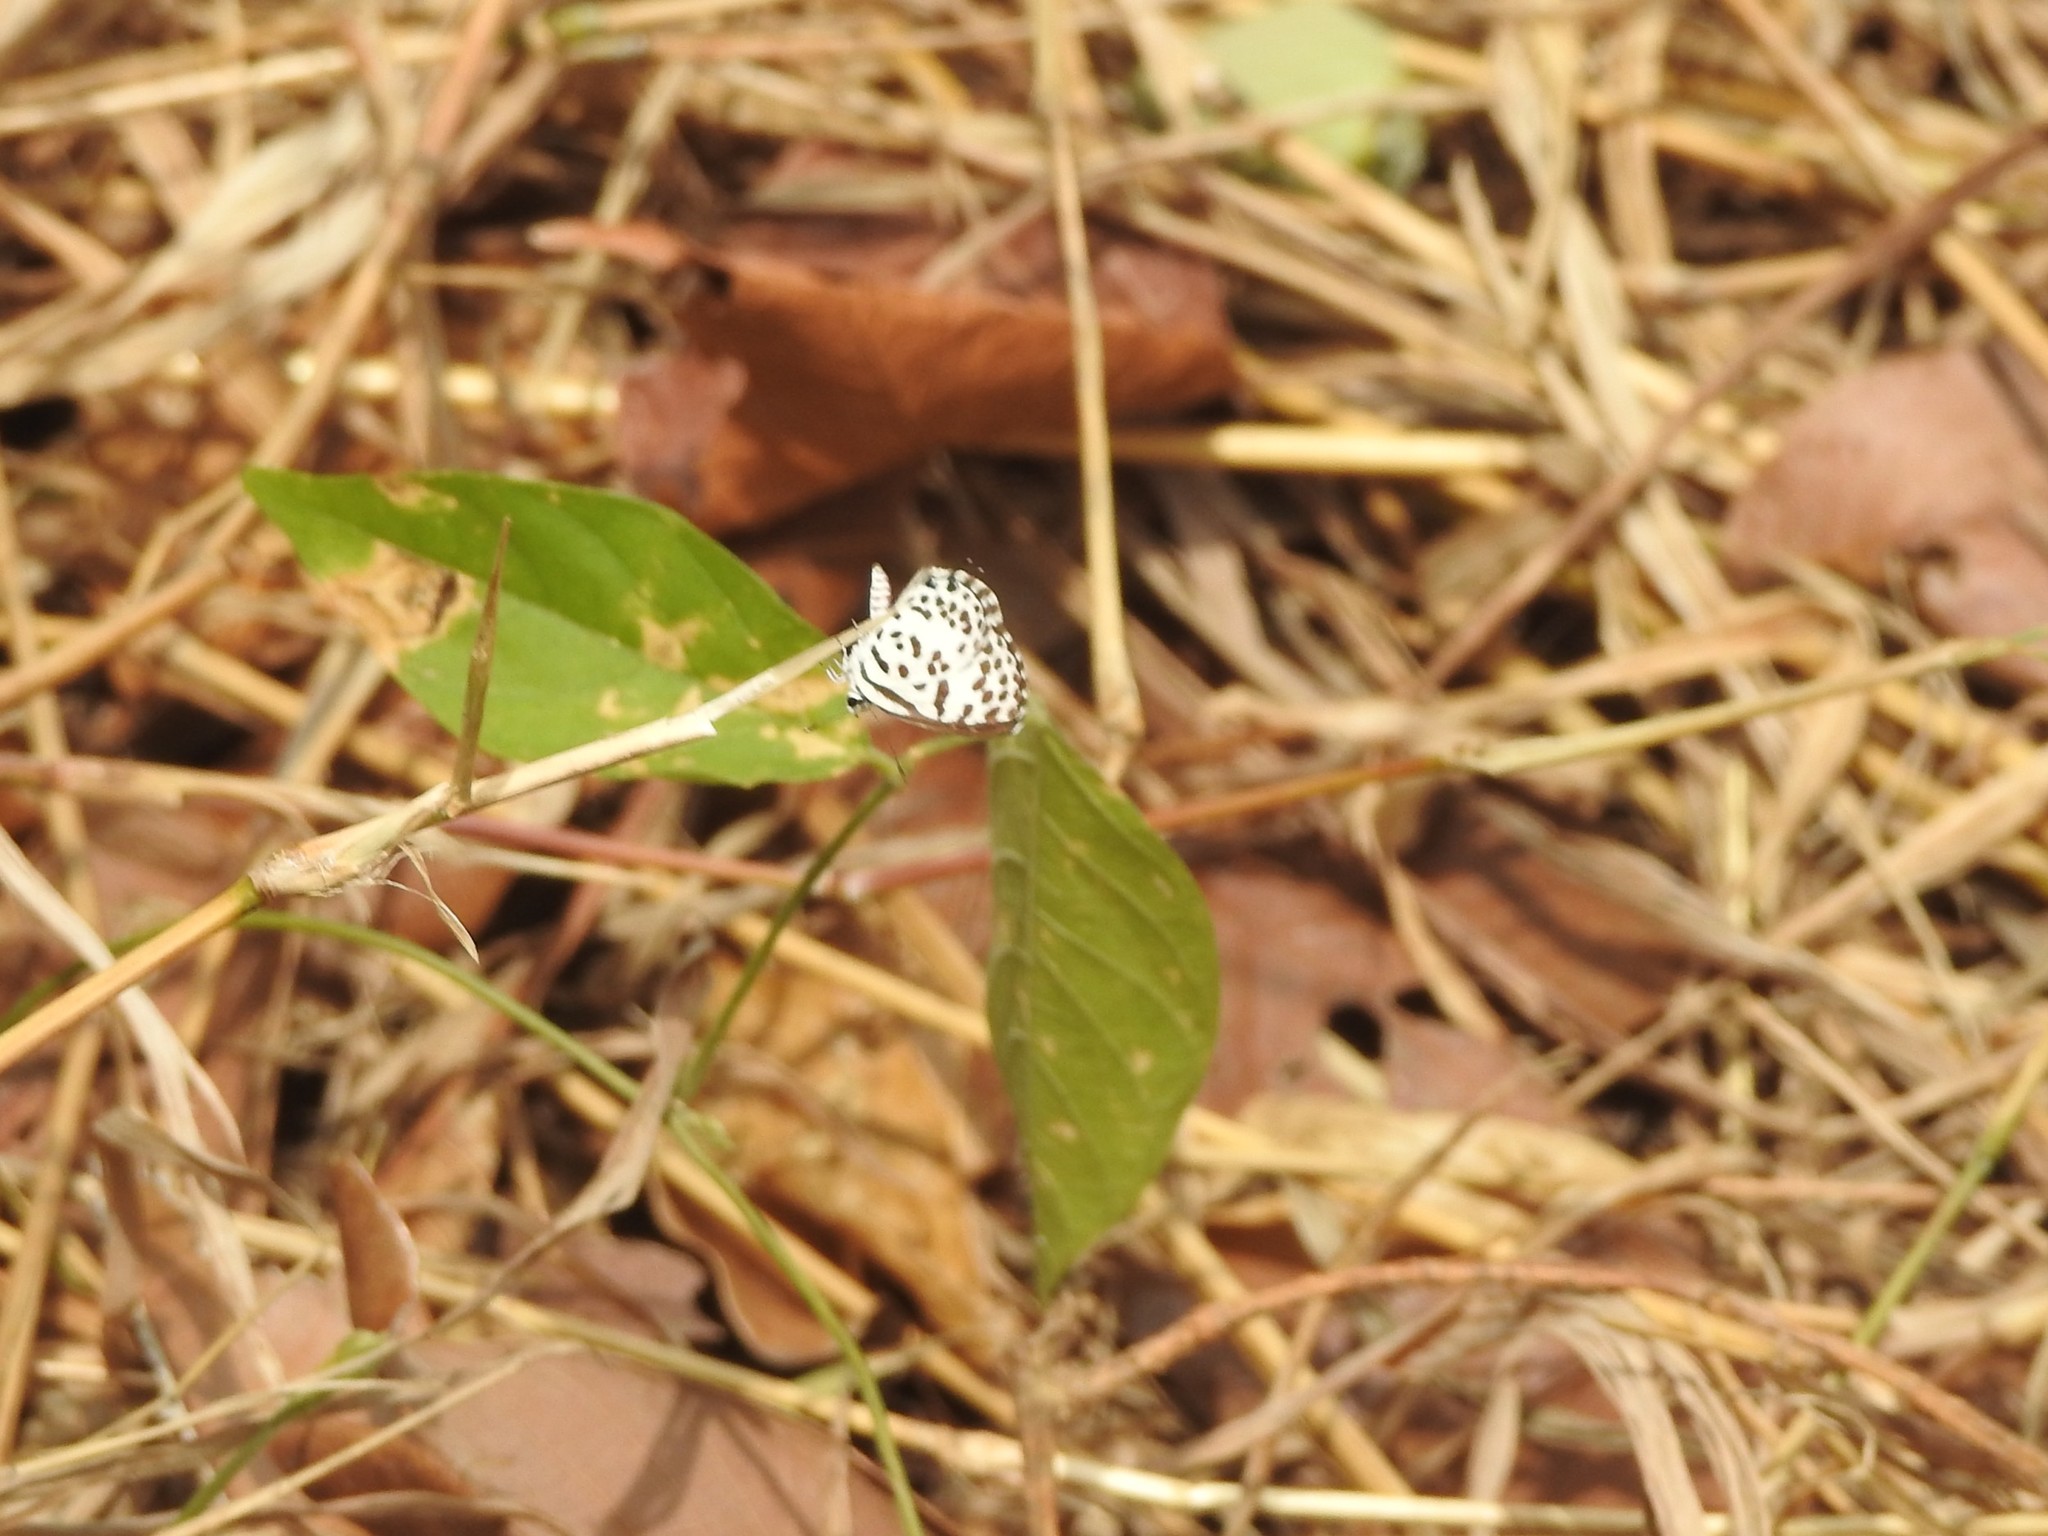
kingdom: Animalia
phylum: Arthropoda
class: Insecta
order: Lepidoptera
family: Lycaenidae
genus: Castalius
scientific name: Castalius rosimon
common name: Common pierrot
